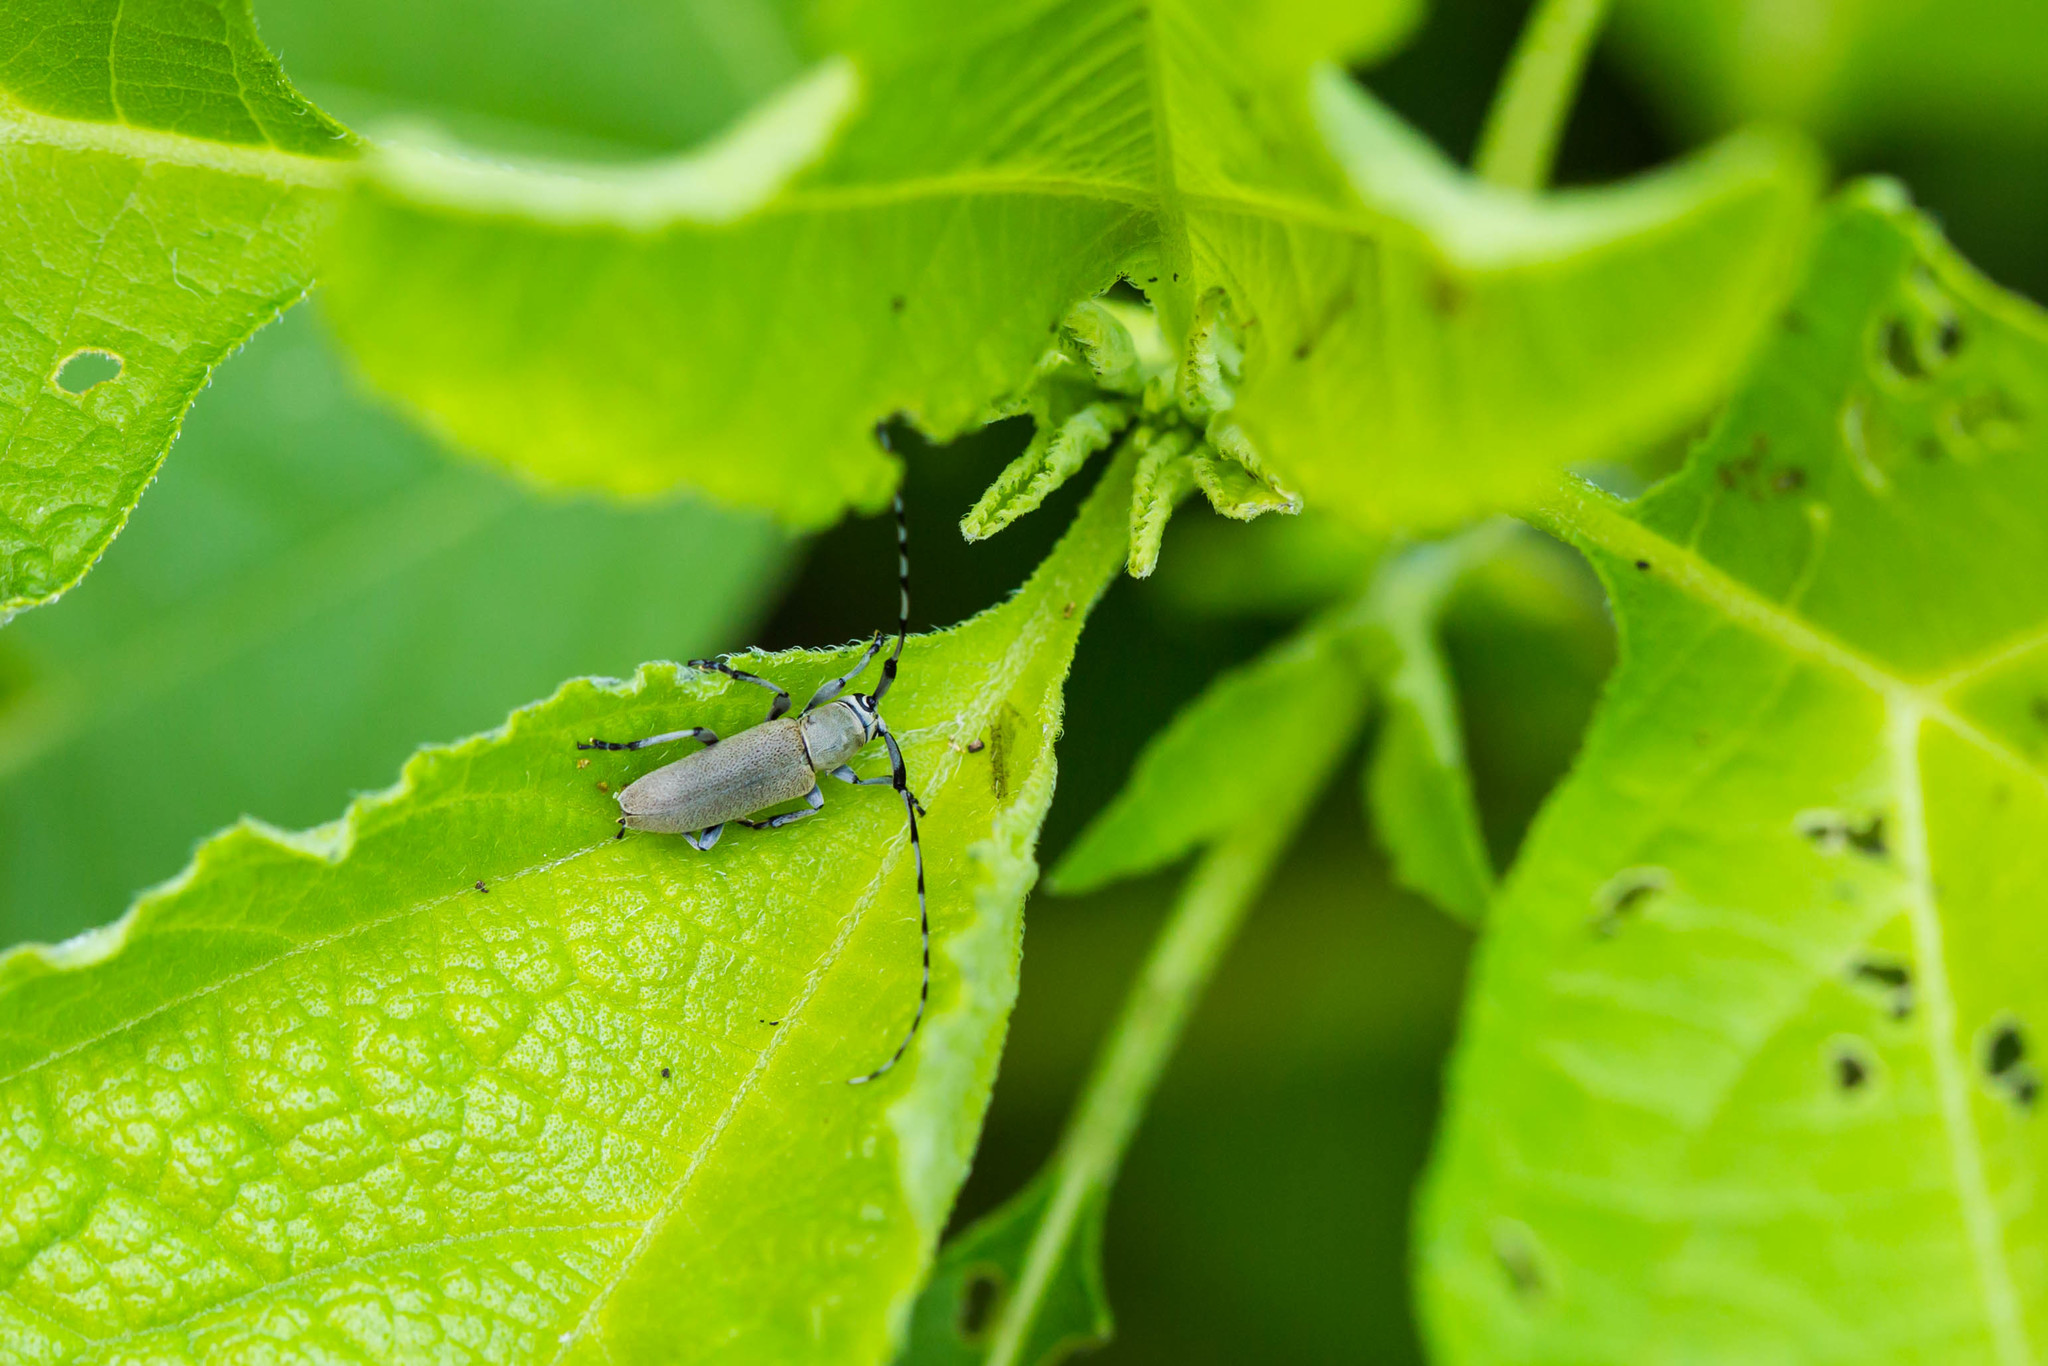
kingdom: Animalia
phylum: Arthropoda
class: Insecta
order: Coleoptera
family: Cerambycidae
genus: Dectes
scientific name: Dectes texanus
